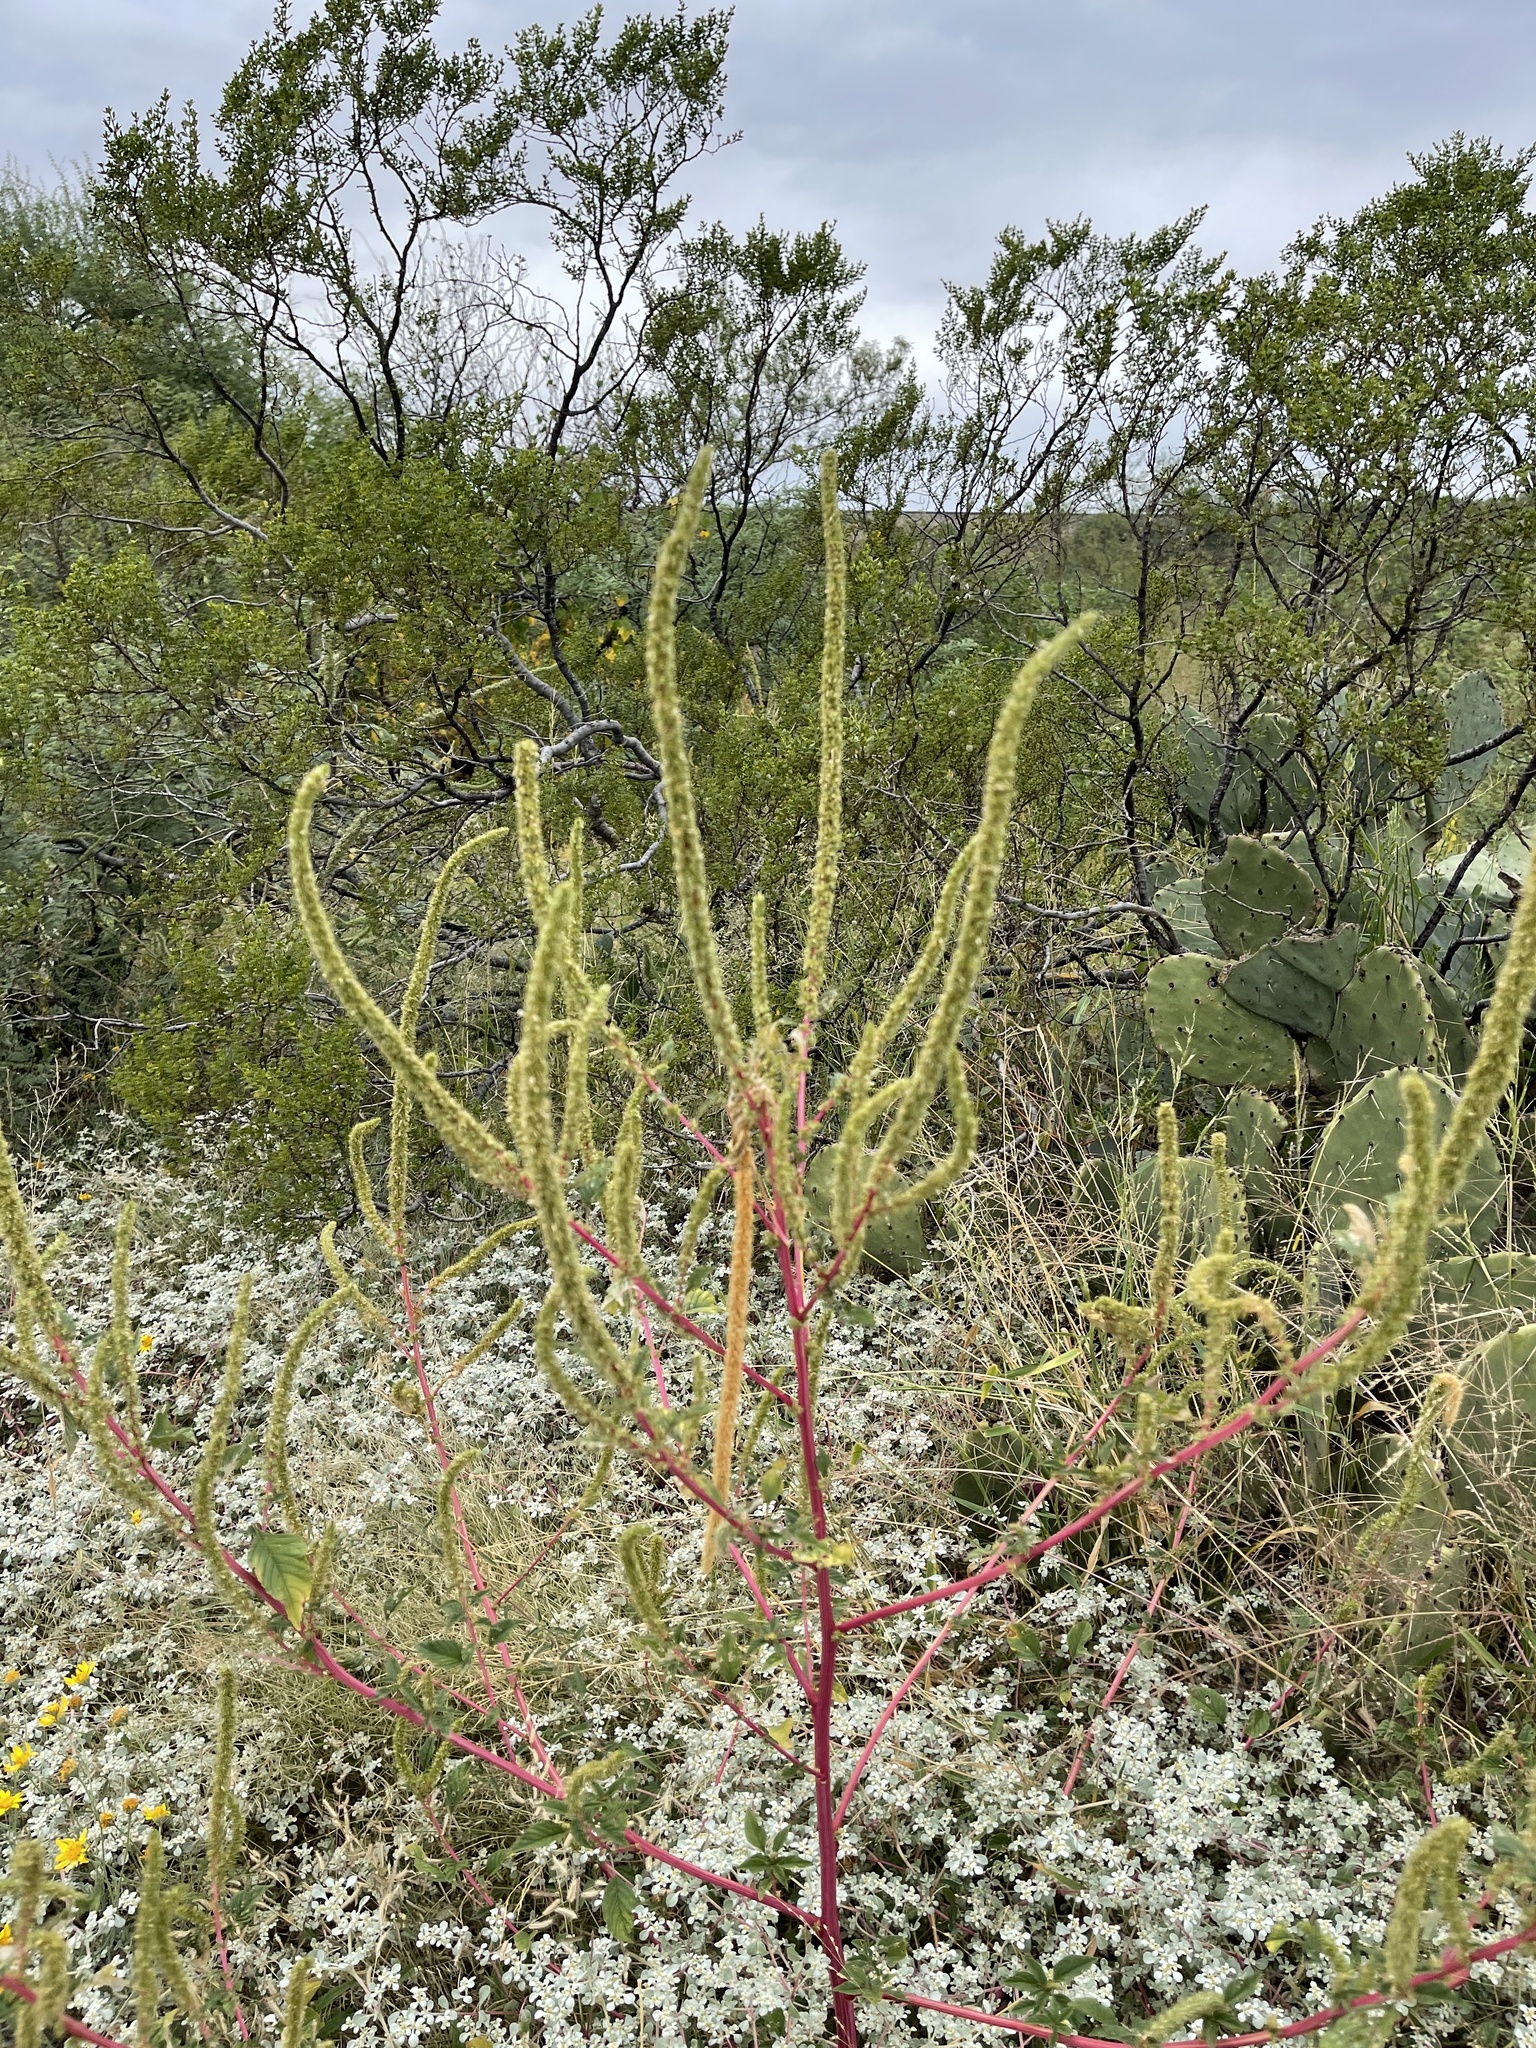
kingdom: Plantae
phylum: Tracheophyta
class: Magnoliopsida
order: Caryophyllales
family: Amaranthaceae
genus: Amaranthus
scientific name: Amaranthus palmeri
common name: Dioecious amaranth
